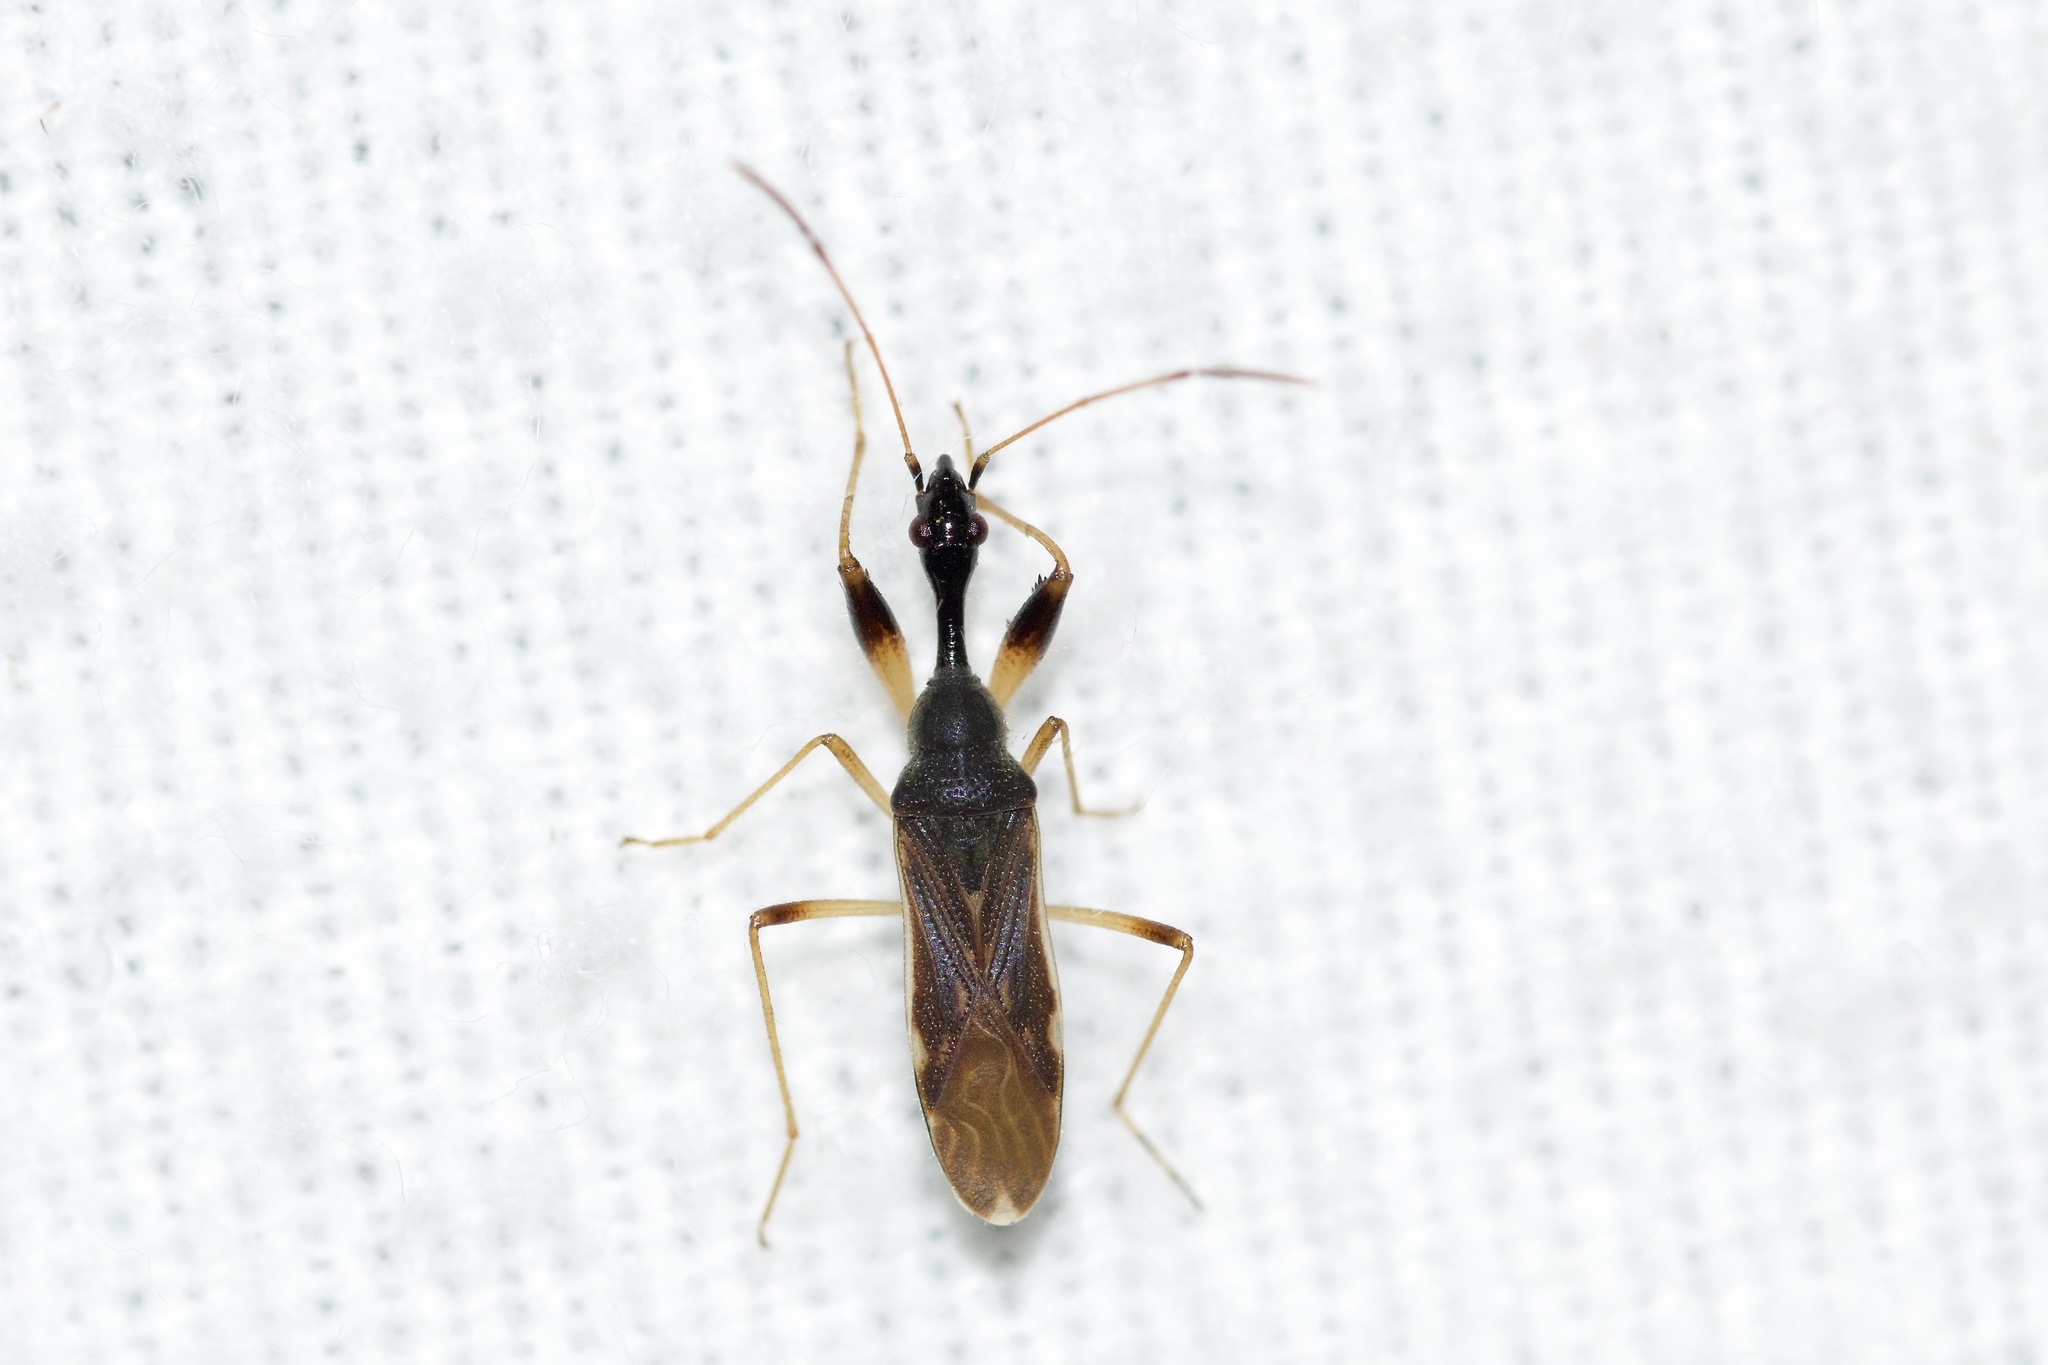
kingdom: Animalia
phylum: Arthropoda
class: Insecta
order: Hemiptera
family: Rhyparochromidae
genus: Myodocha
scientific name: Myodocha serripes
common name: Long-necked seed bug
